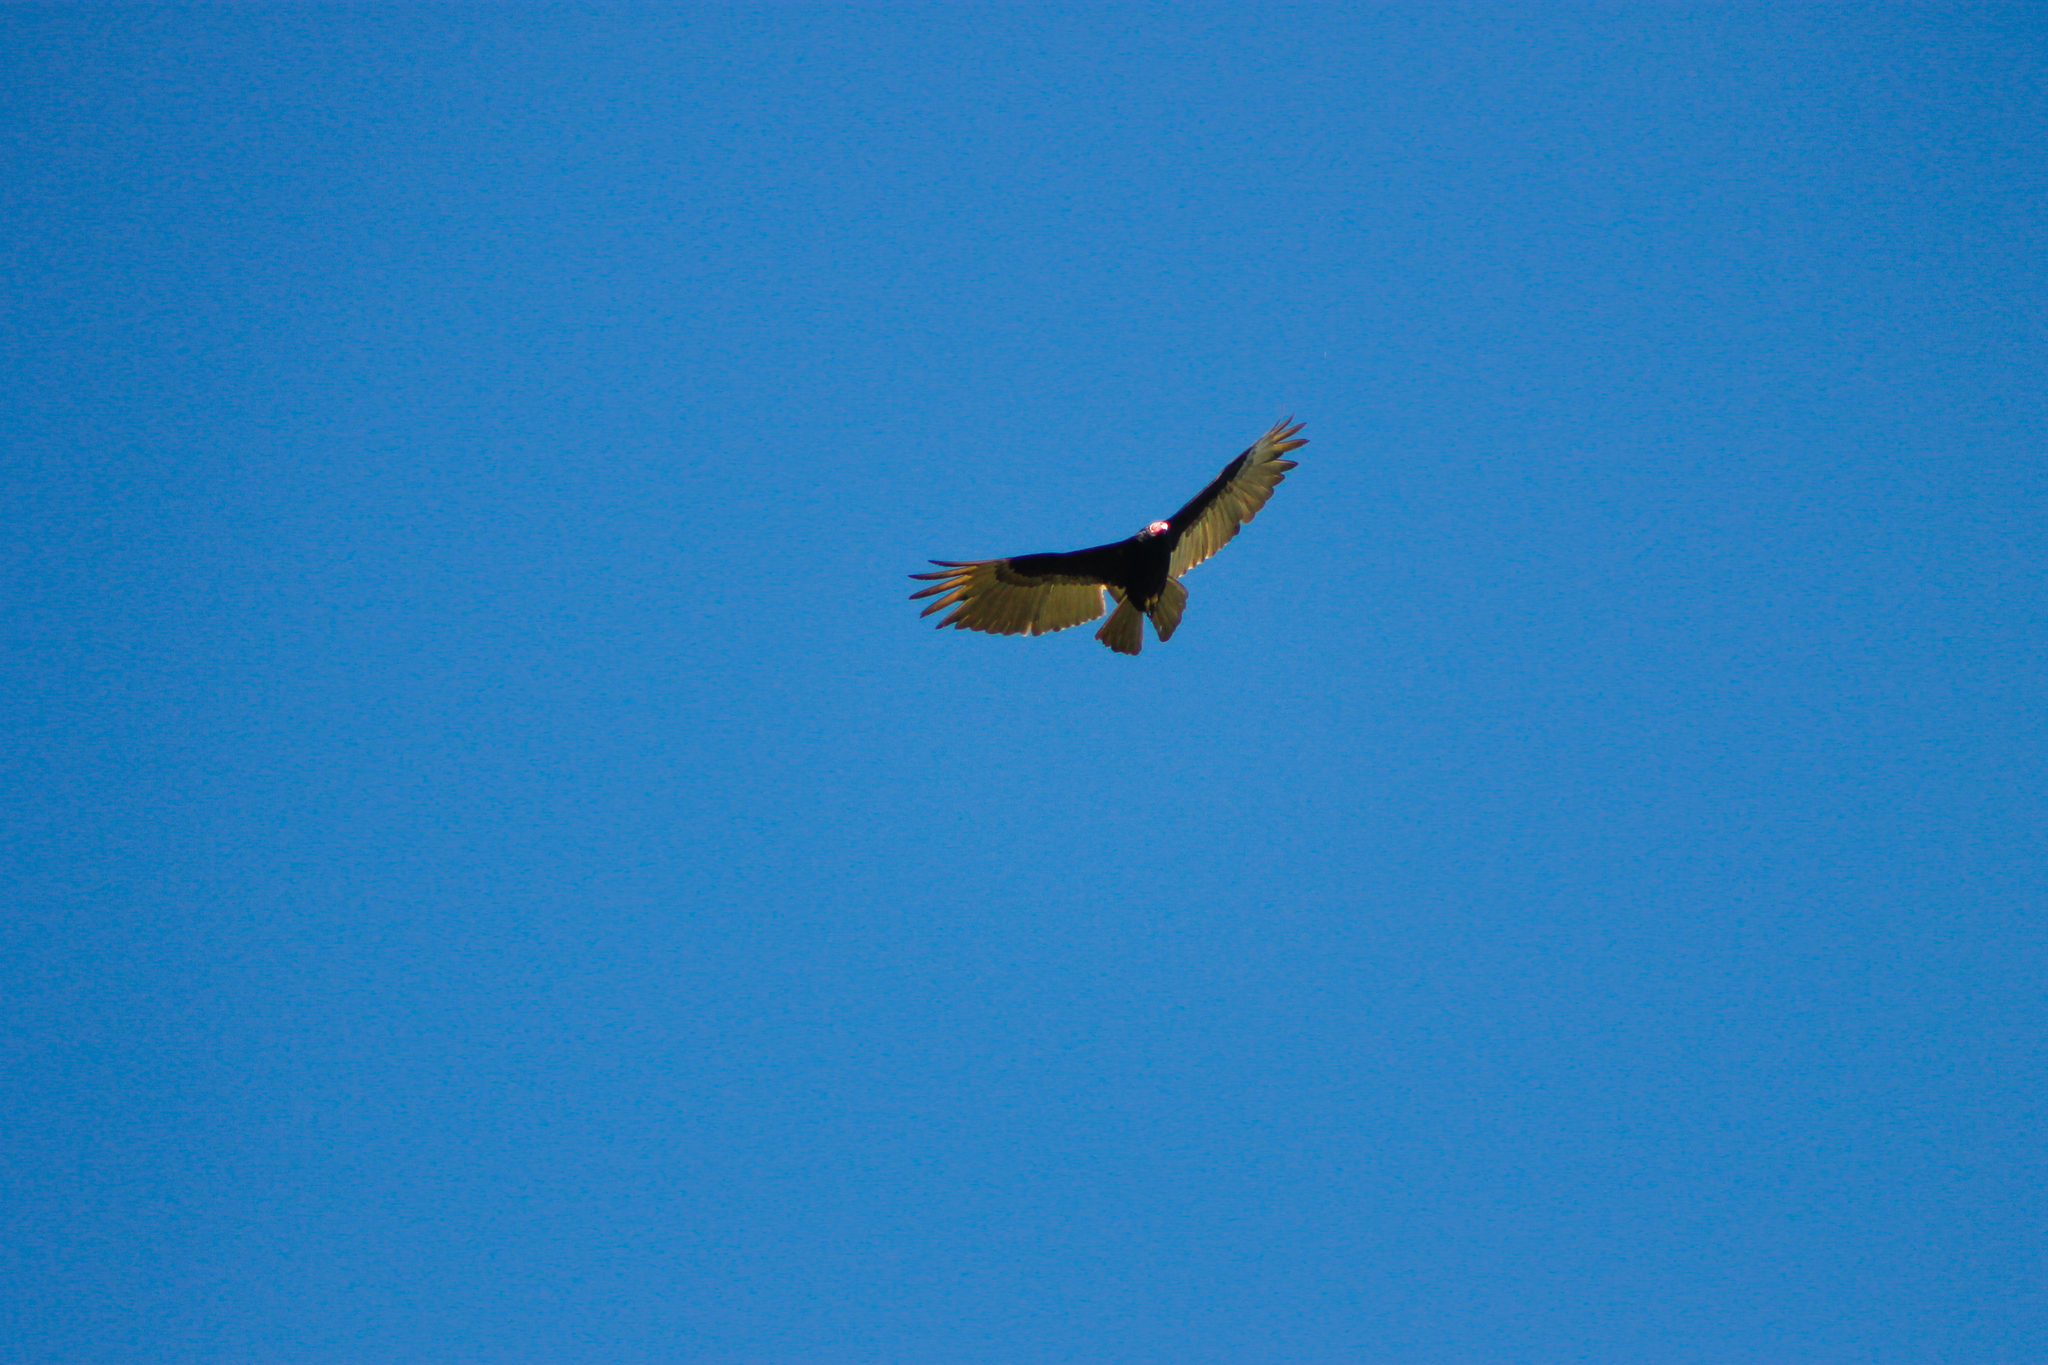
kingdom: Animalia
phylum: Chordata
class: Aves
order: Accipitriformes
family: Cathartidae
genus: Cathartes
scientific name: Cathartes aura
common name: Turkey vulture
